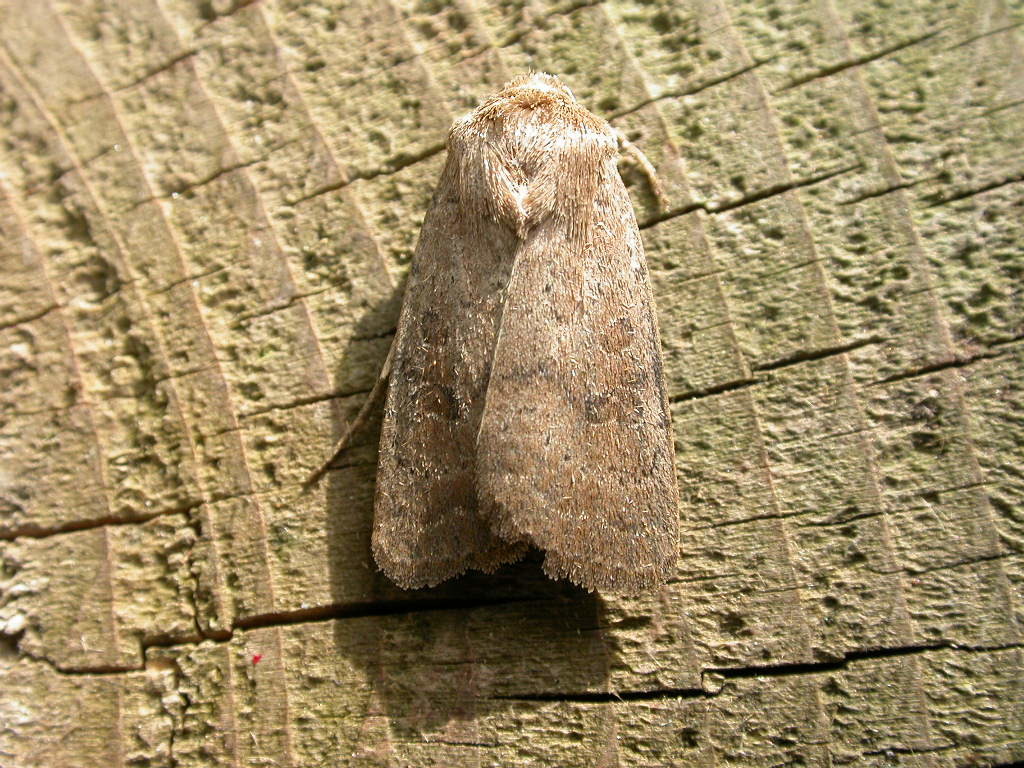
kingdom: Animalia
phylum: Arthropoda
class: Insecta
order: Lepidoptera
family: Noctuidae
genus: Hoplodrina
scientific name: Hoplodrina octogenaria
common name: Uncertain
